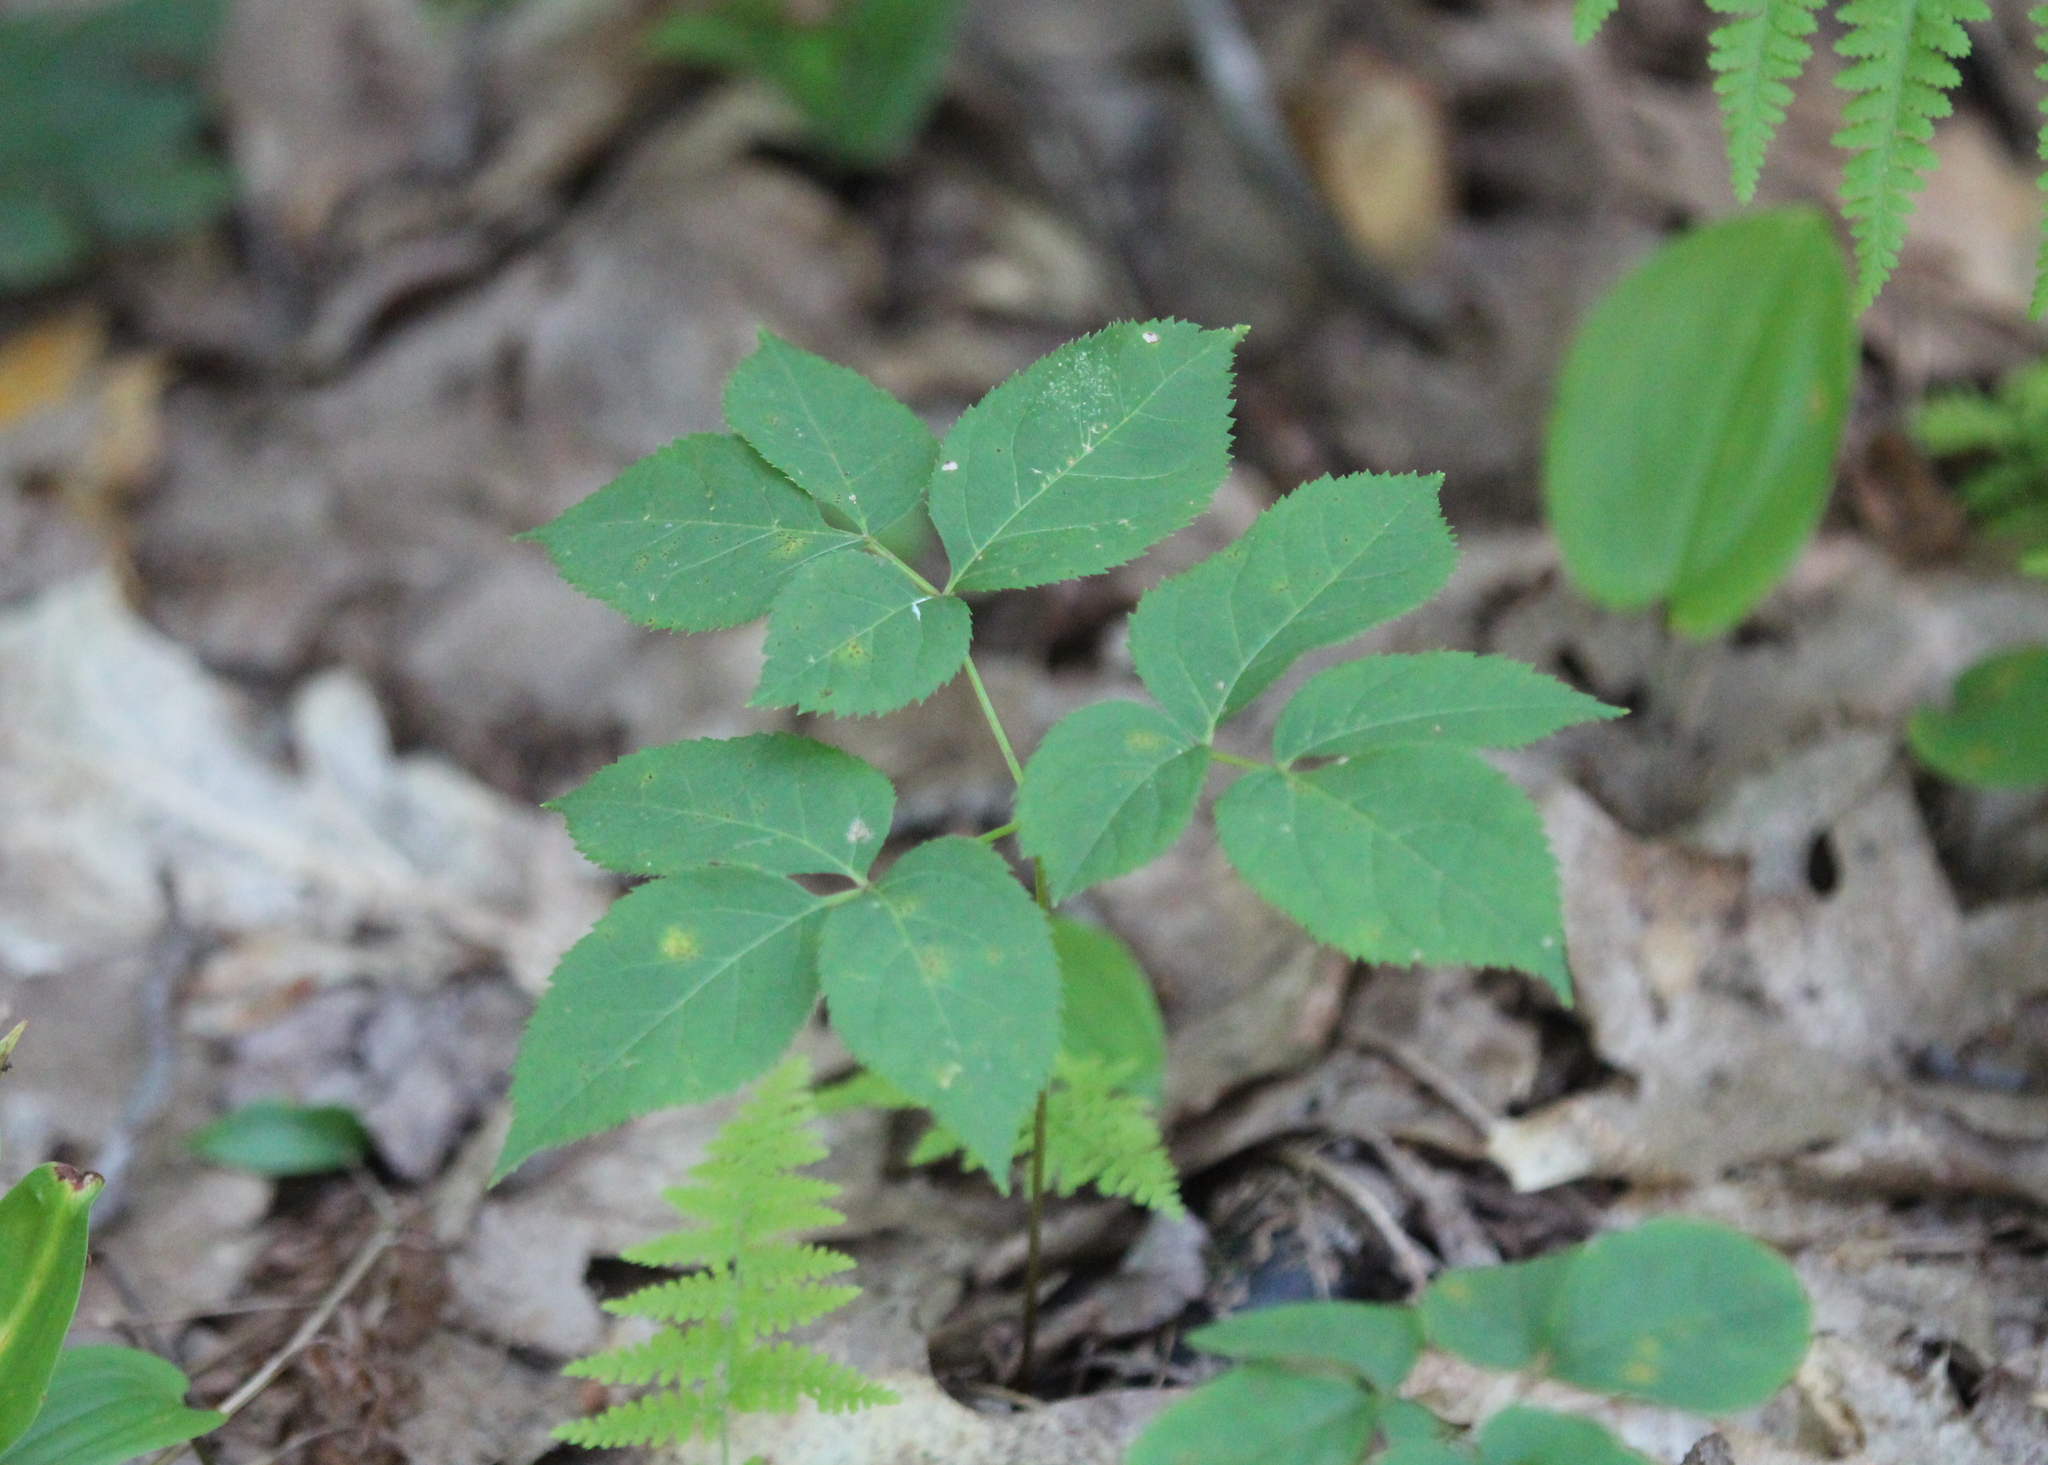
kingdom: Plantae
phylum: Tracheophyta
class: Magnoliopsida
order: Apiales
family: Araliaceae
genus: Aralia
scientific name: Aralia nudicaulis
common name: Wild sarsaparilla
